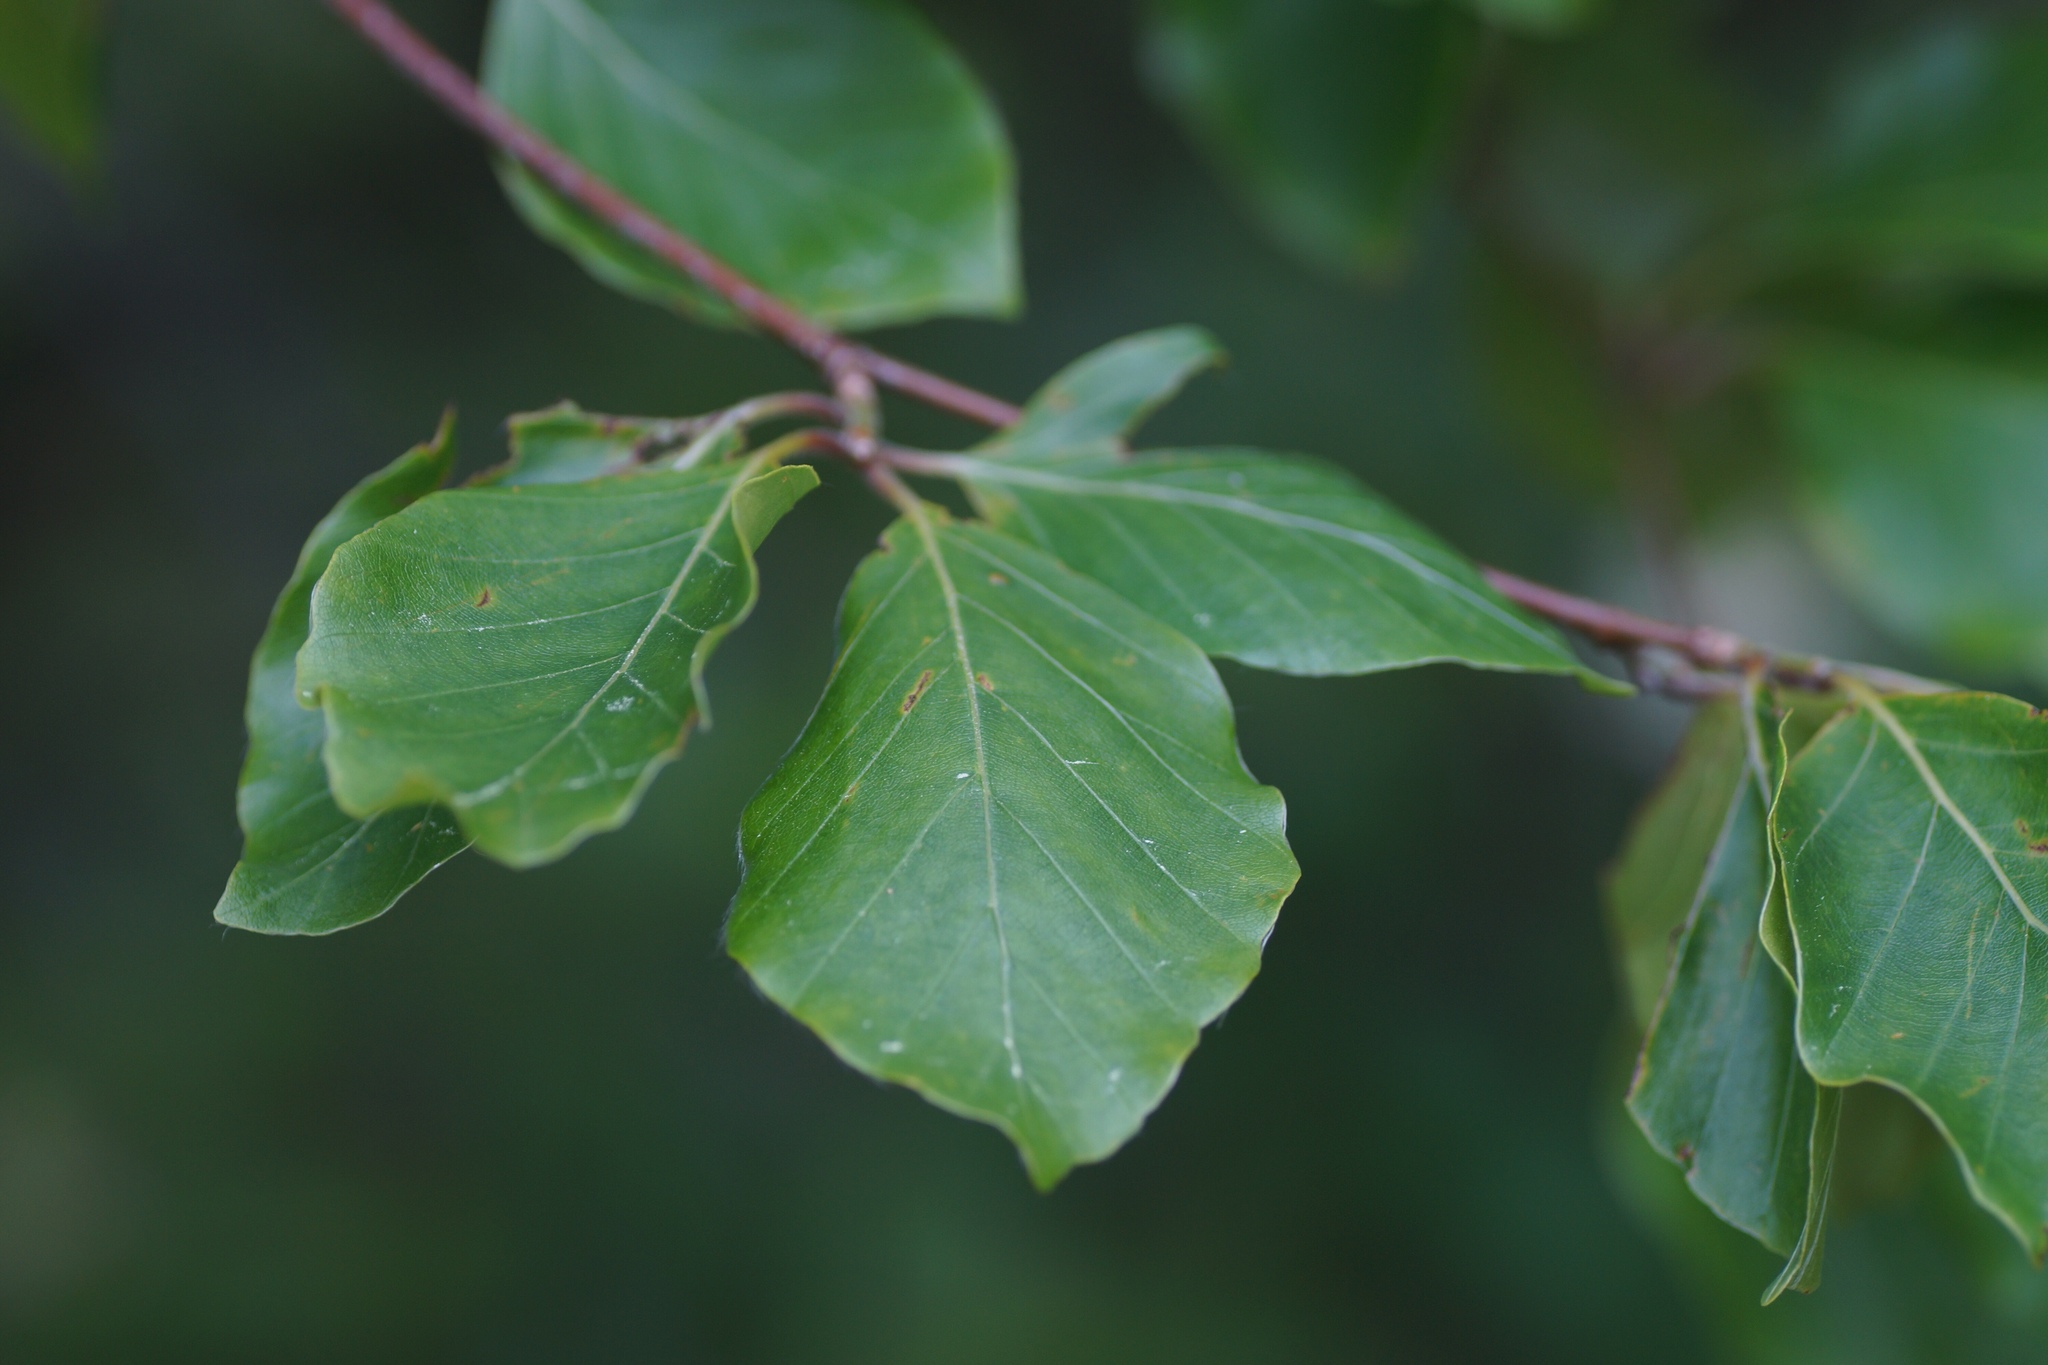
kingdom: Plantae
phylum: Tracheophyta
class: Magnoliopsida
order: Fagales
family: Fagaceae
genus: Fagus
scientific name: Fagus sylvatica
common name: Beech
